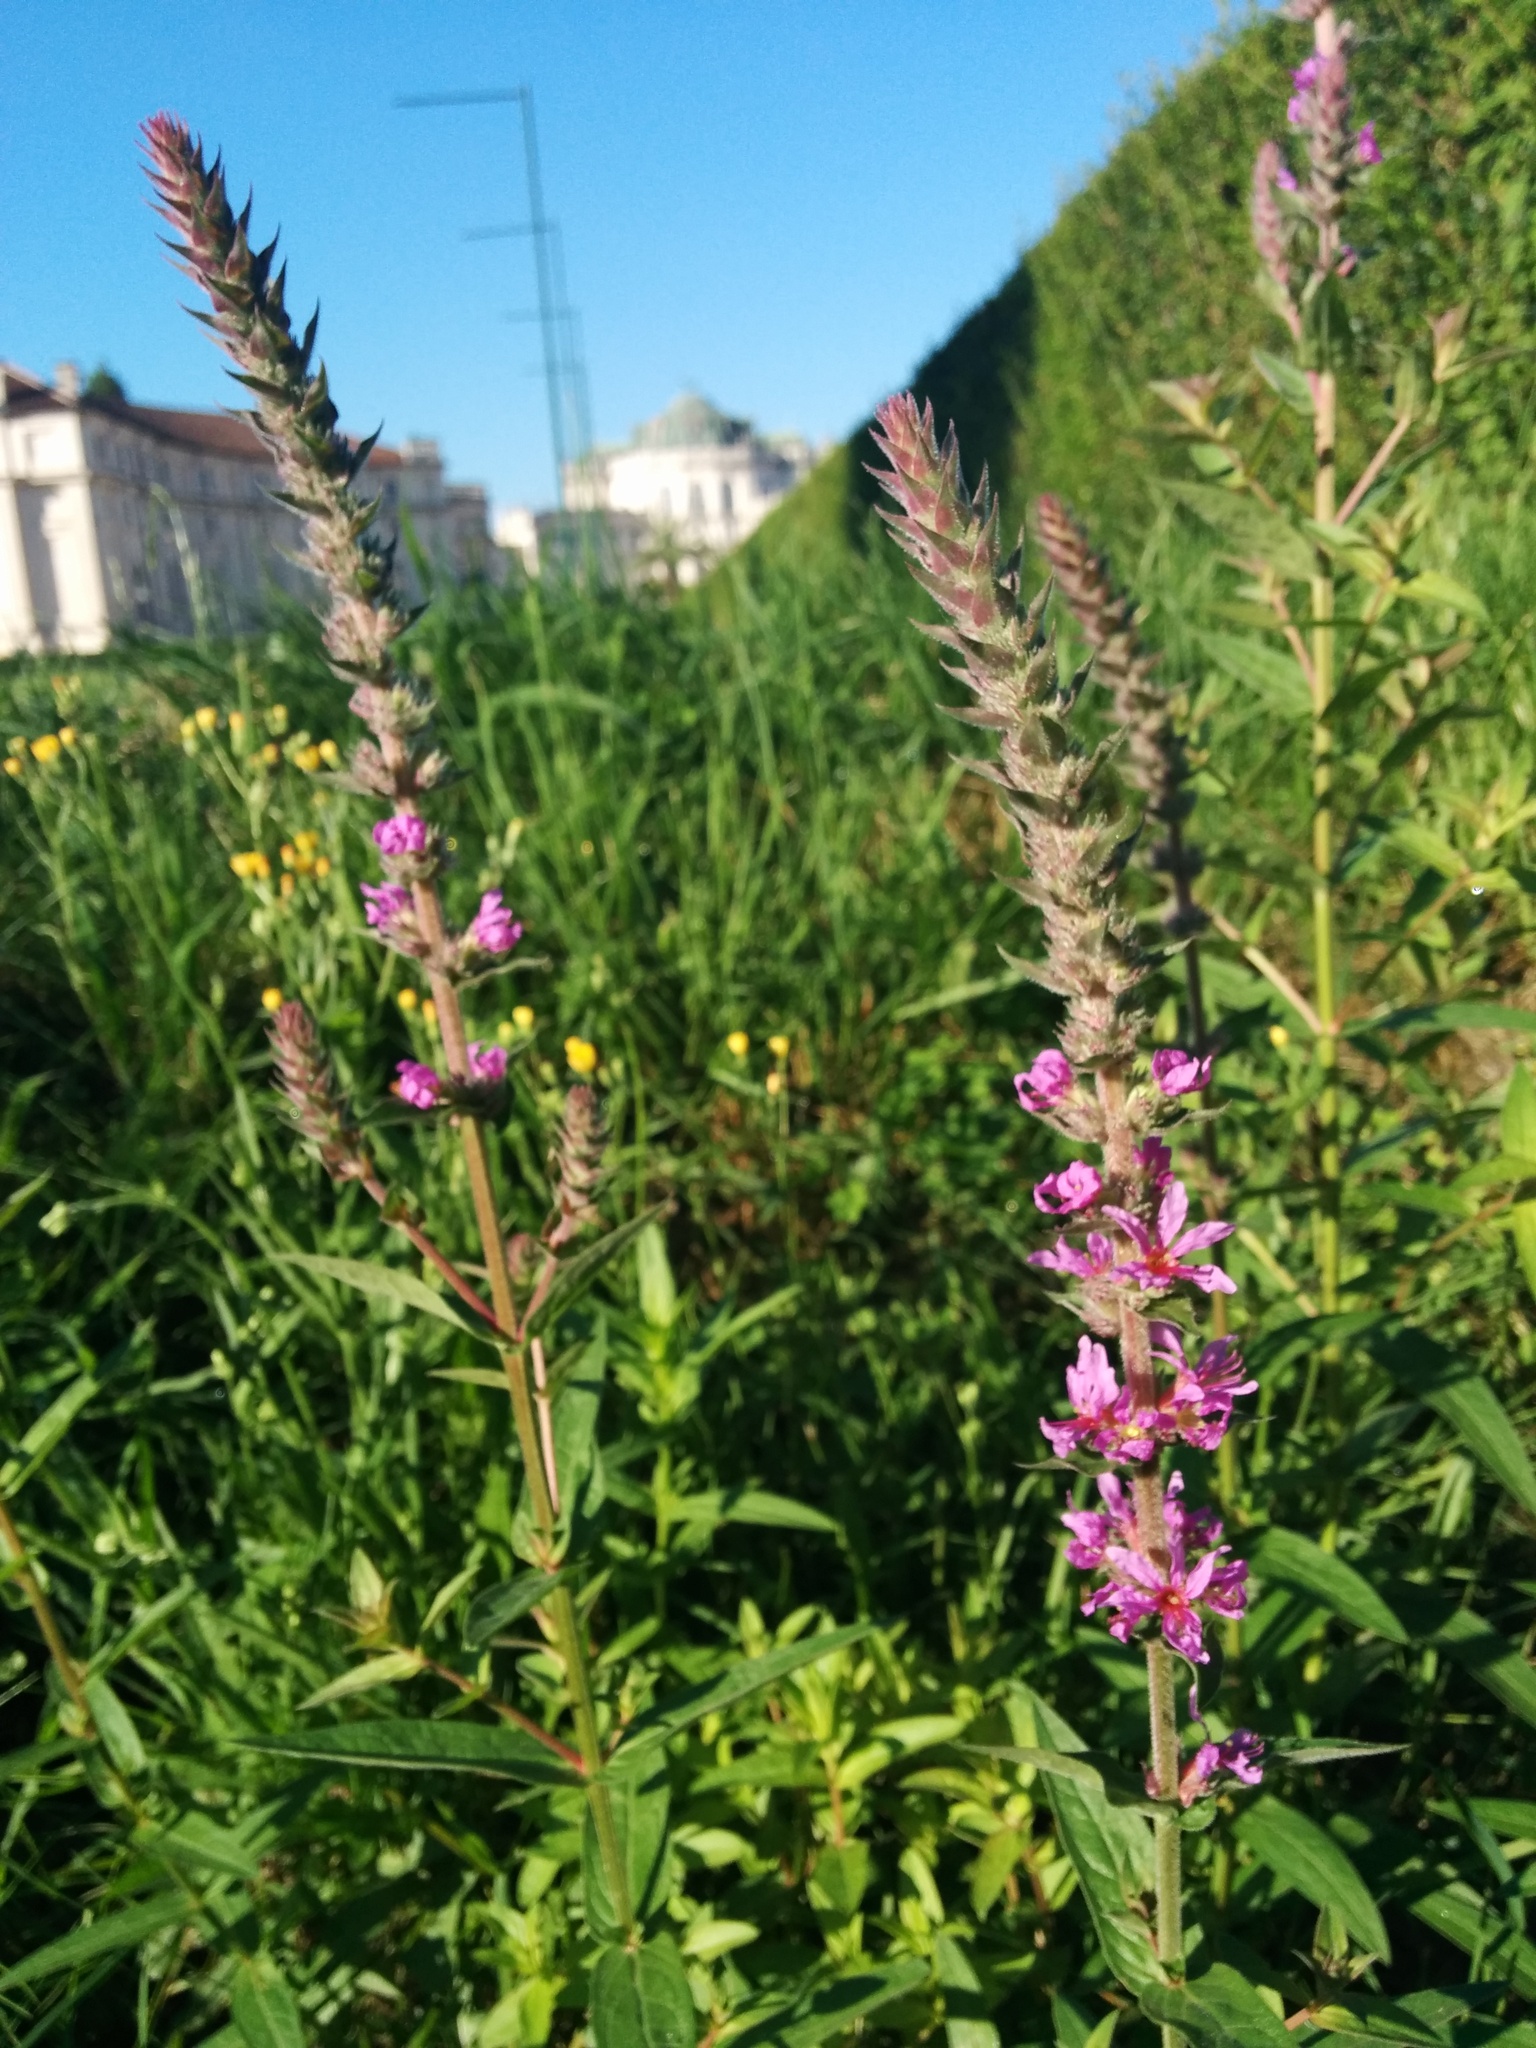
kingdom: Plantae
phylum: Tracheophyta
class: Magnoliopsida
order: Myrtales
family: Lythraceae
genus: Lythrum
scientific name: Lythrum salicaria
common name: Purple loosestrife
